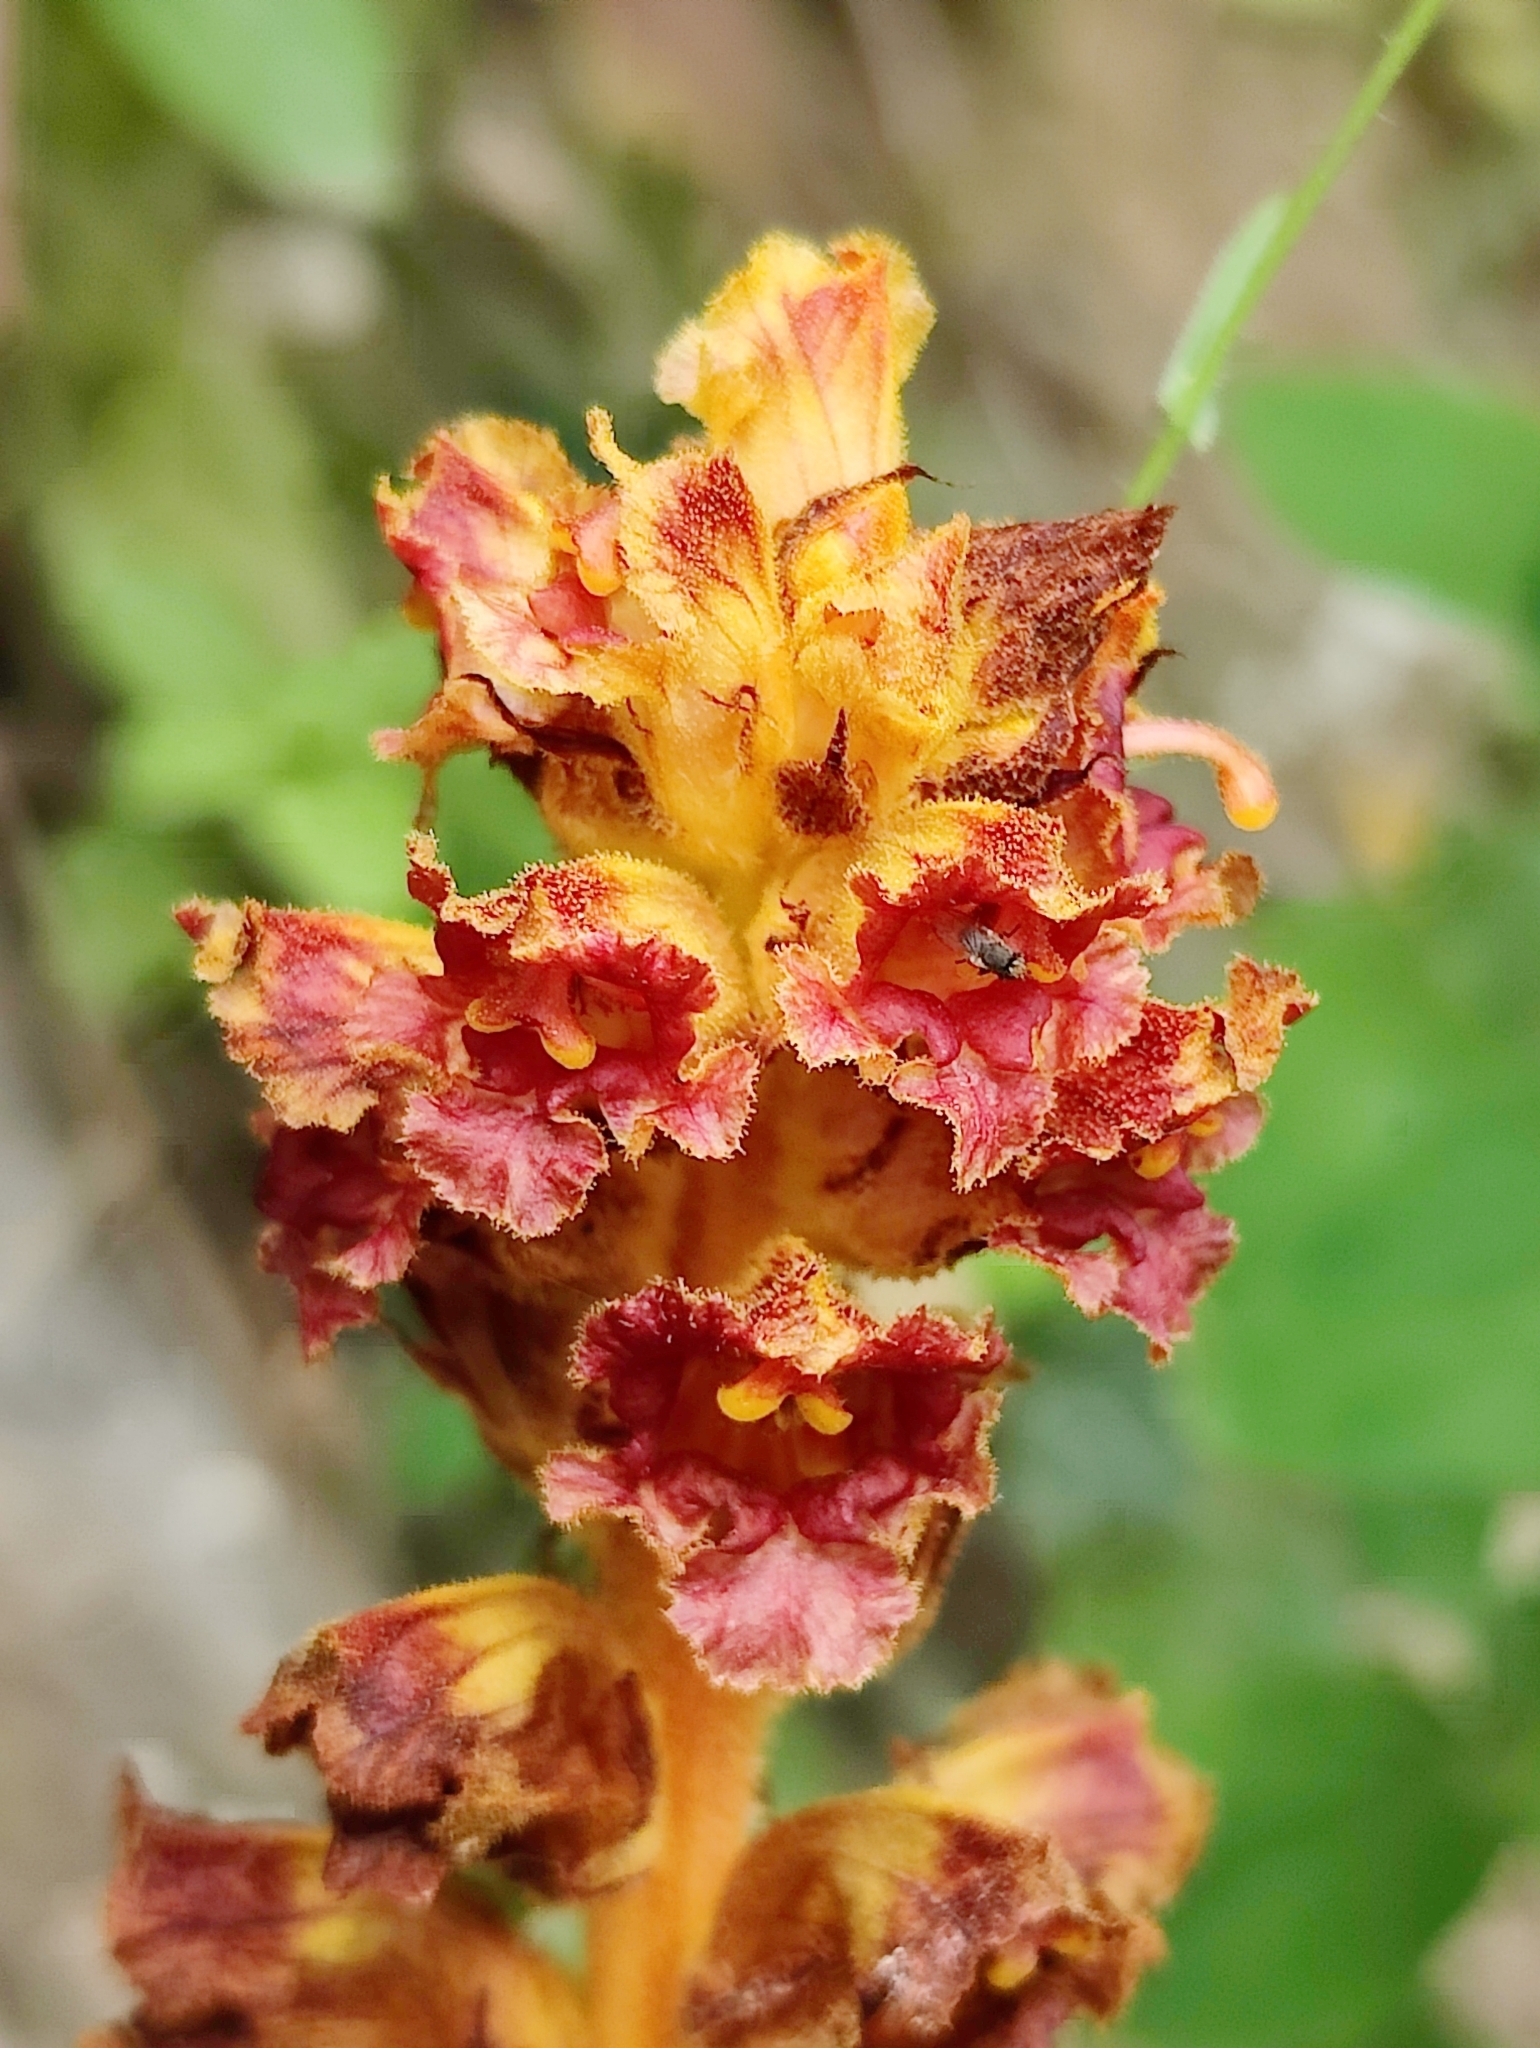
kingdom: Plantae
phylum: Tracheophyta
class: Magnoliopsida
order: Lamiales
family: Orobanchaceae
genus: Orobanche
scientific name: Orobanche gracilis
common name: Slender broomrape
